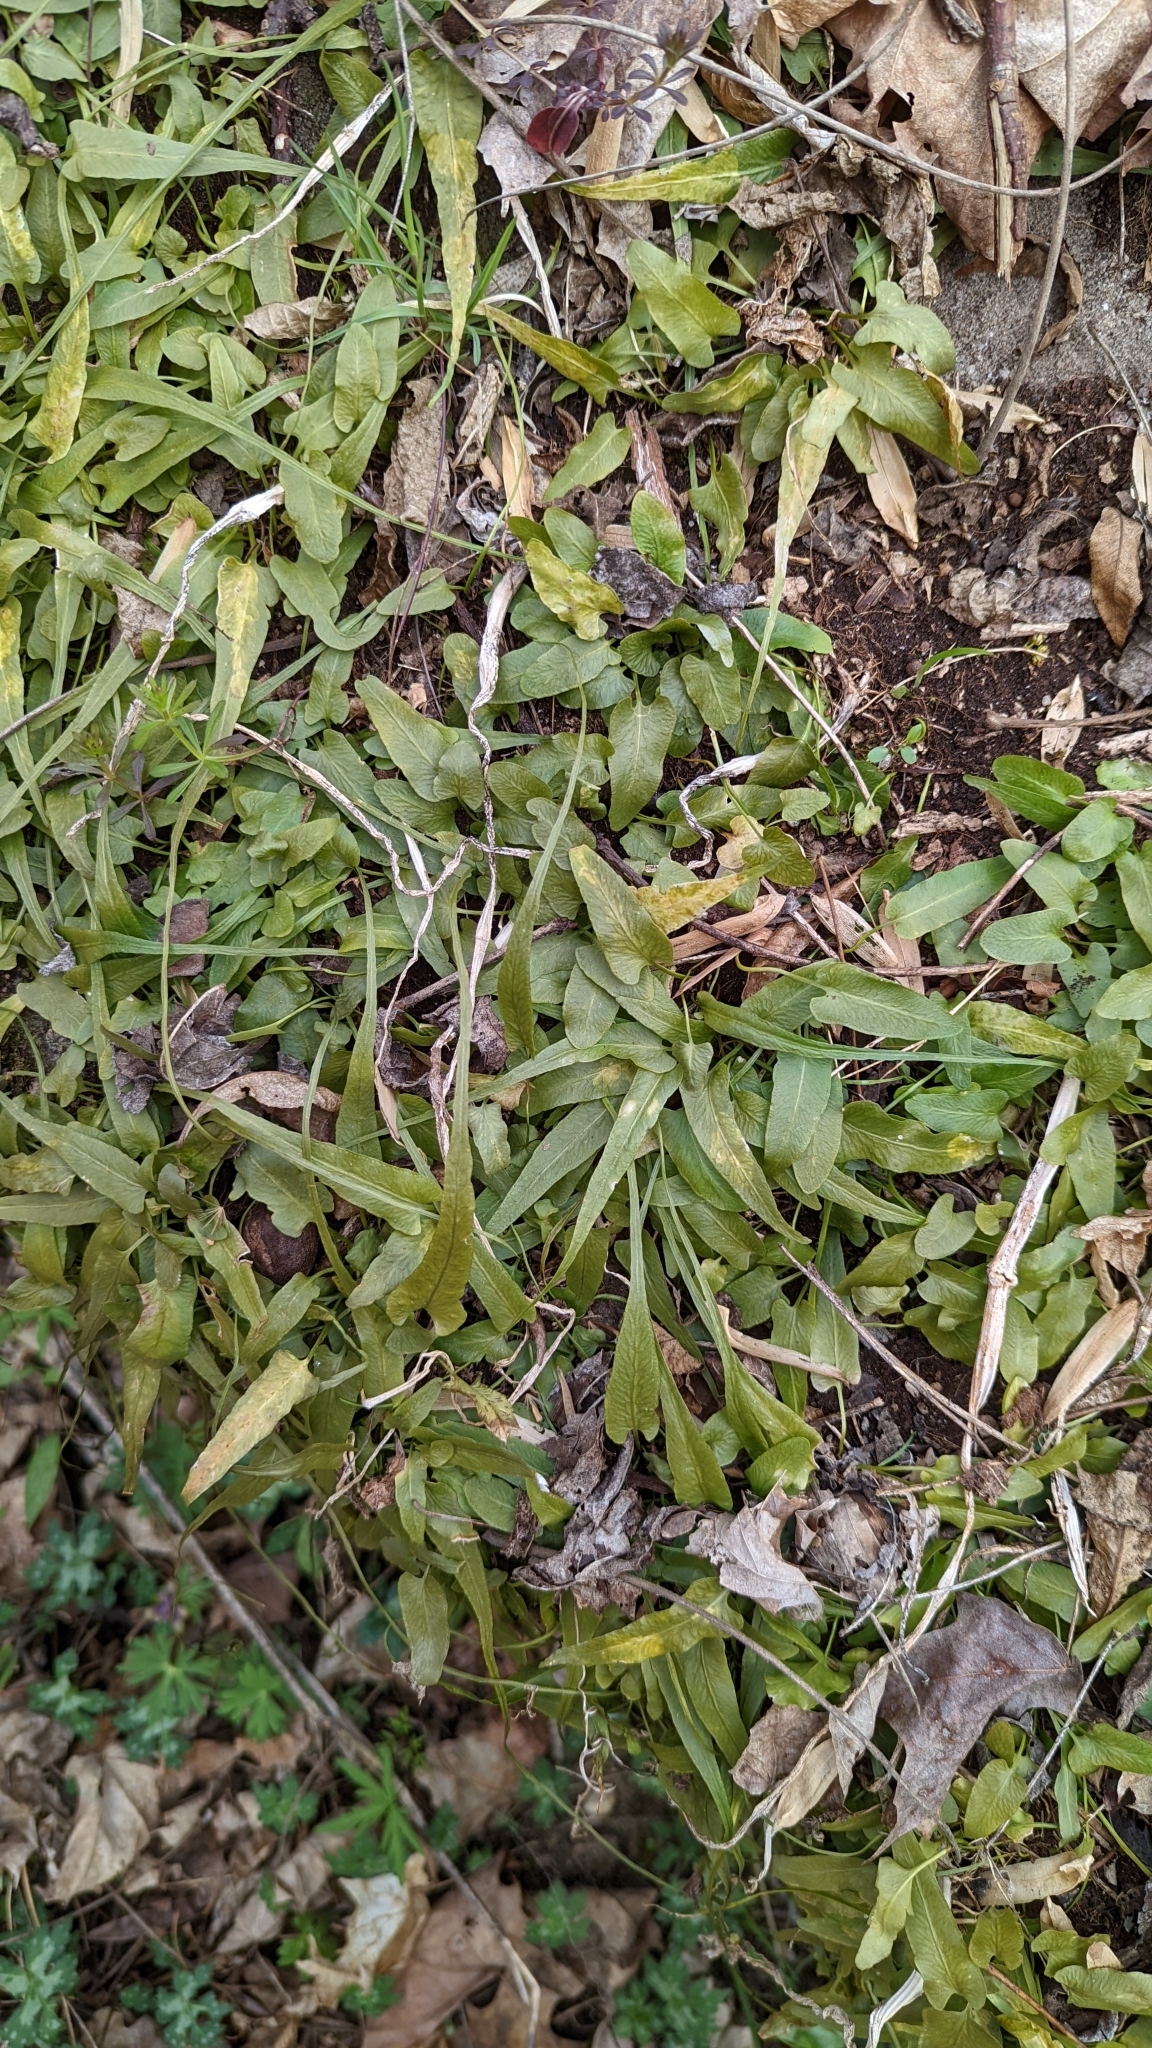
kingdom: Plantae
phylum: Tracheophyta
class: Polypodiopsida
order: Polypodiales
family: Aspleniaceae
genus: Asplenium
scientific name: Asplenium rhizophyllum
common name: Walking fern
